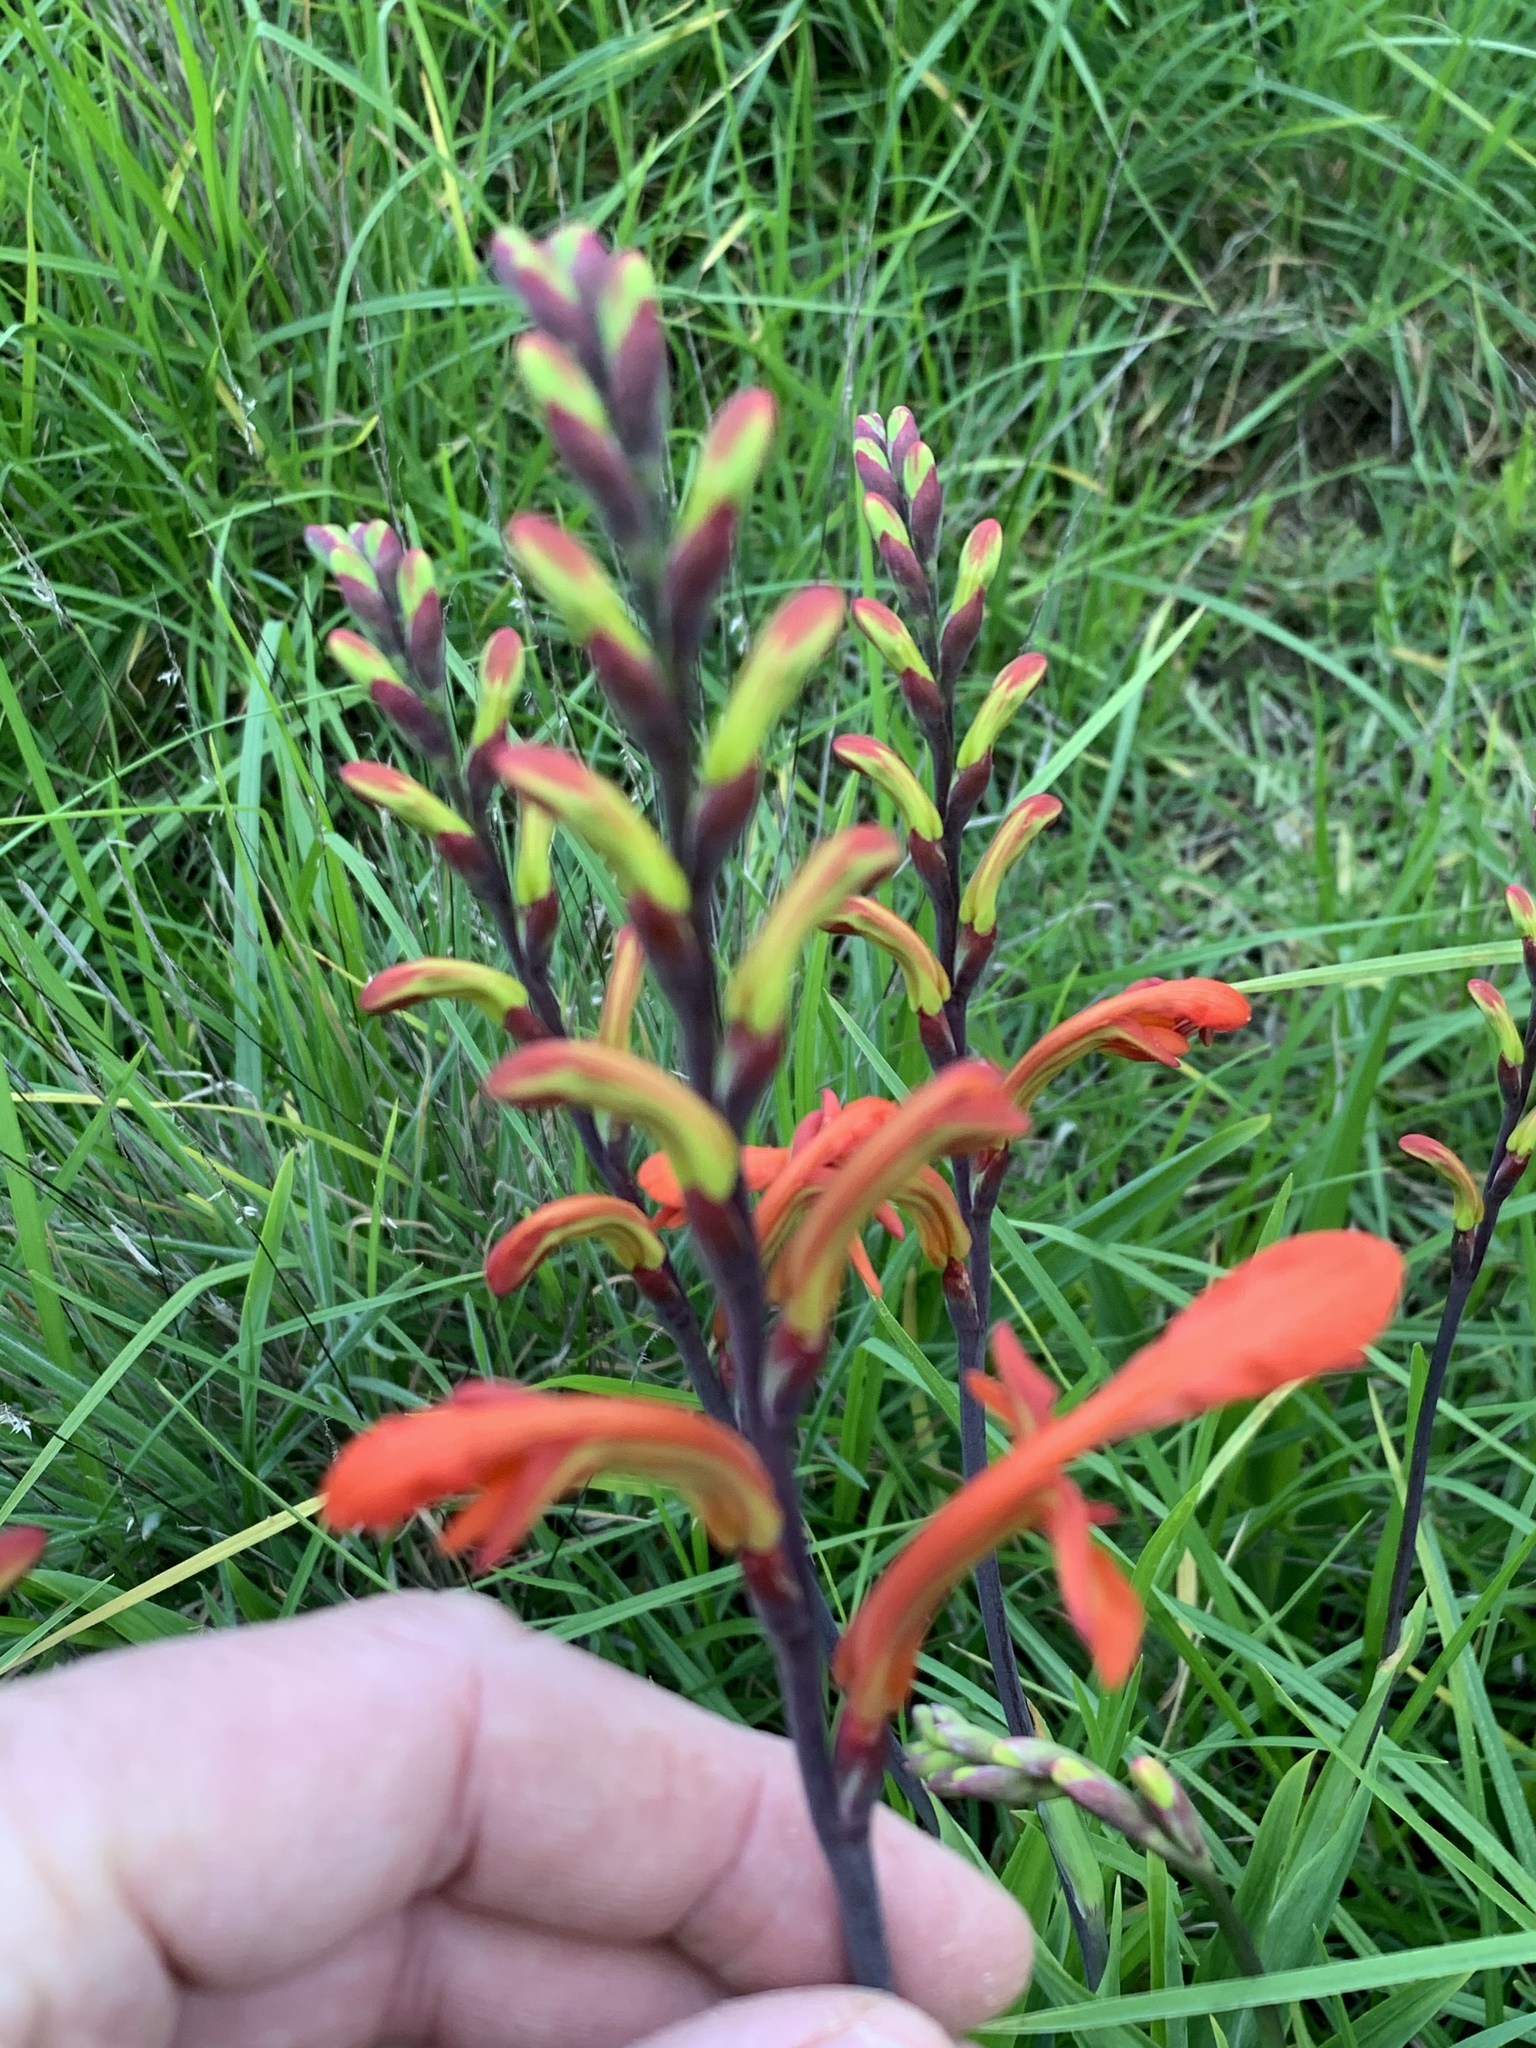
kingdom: Plantae
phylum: Tracheophyta
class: Liliopsida
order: Asparagales
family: Iridaceae
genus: Chasmanthe
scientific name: Chasmanthe aethiopica
